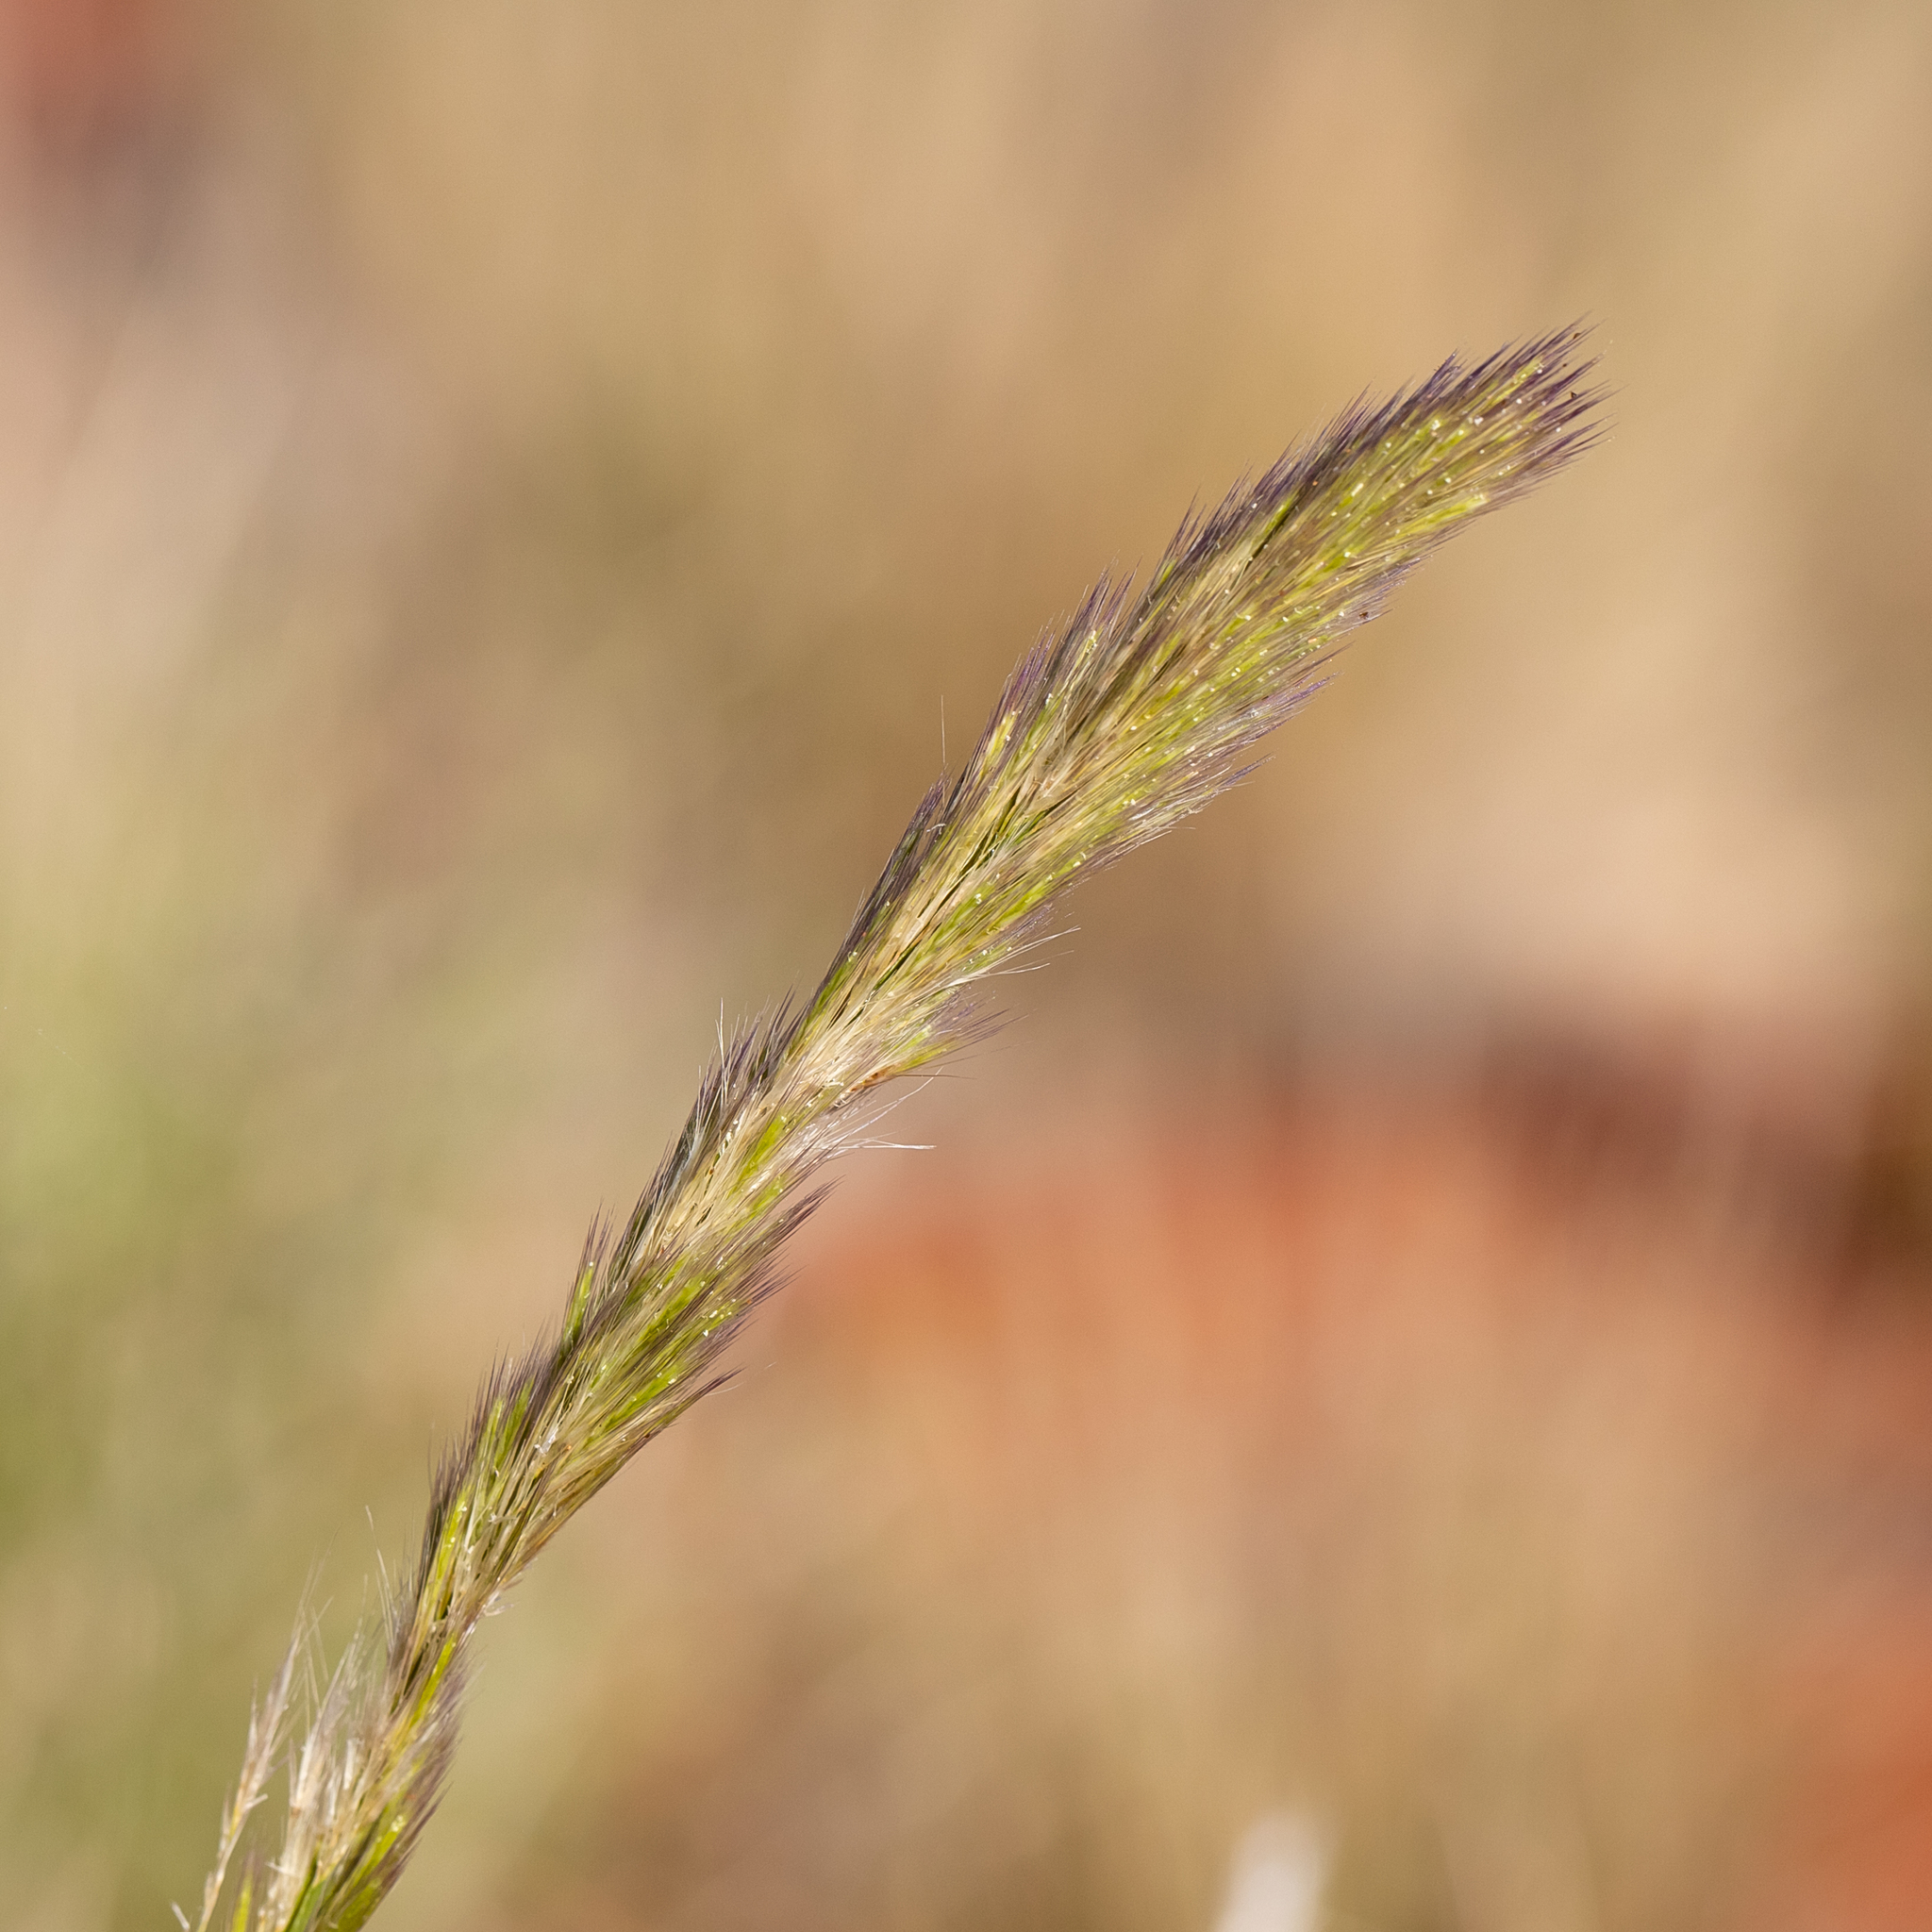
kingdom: Plantae
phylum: Tracheophyta
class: Liliopsida
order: Poales
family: Poaceae
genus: Triraphis
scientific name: Triraphis mollis
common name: Purple needlegrass
